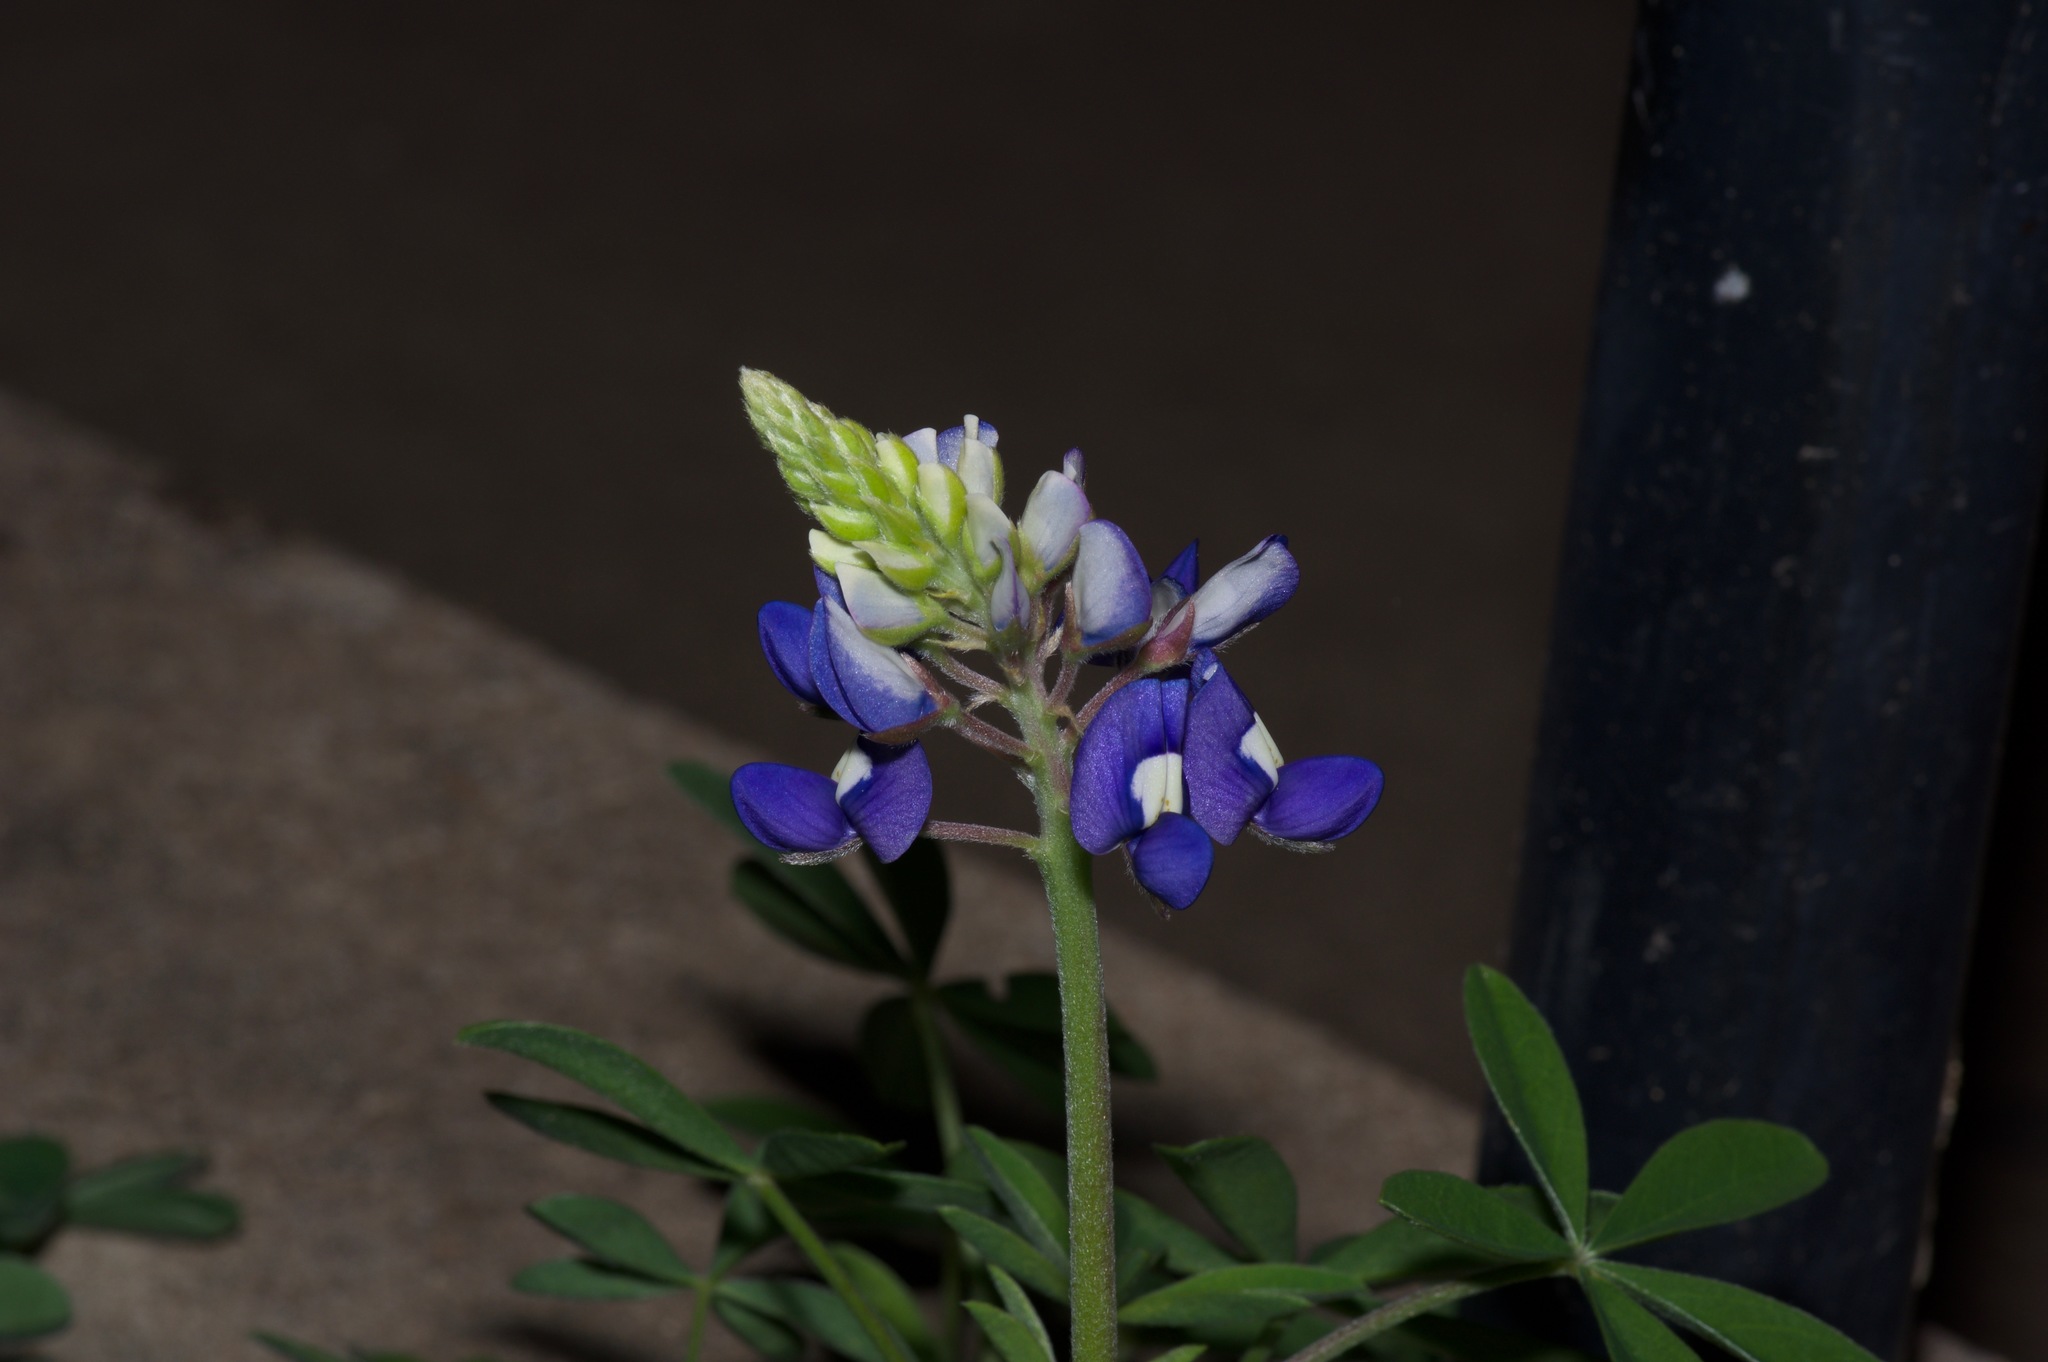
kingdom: Plantae
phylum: Tracheophyta
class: Magnoliopsida
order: Fabales
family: Fabaceae
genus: Lupinus
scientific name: Lupinus texensis
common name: Texas bluebonnet
